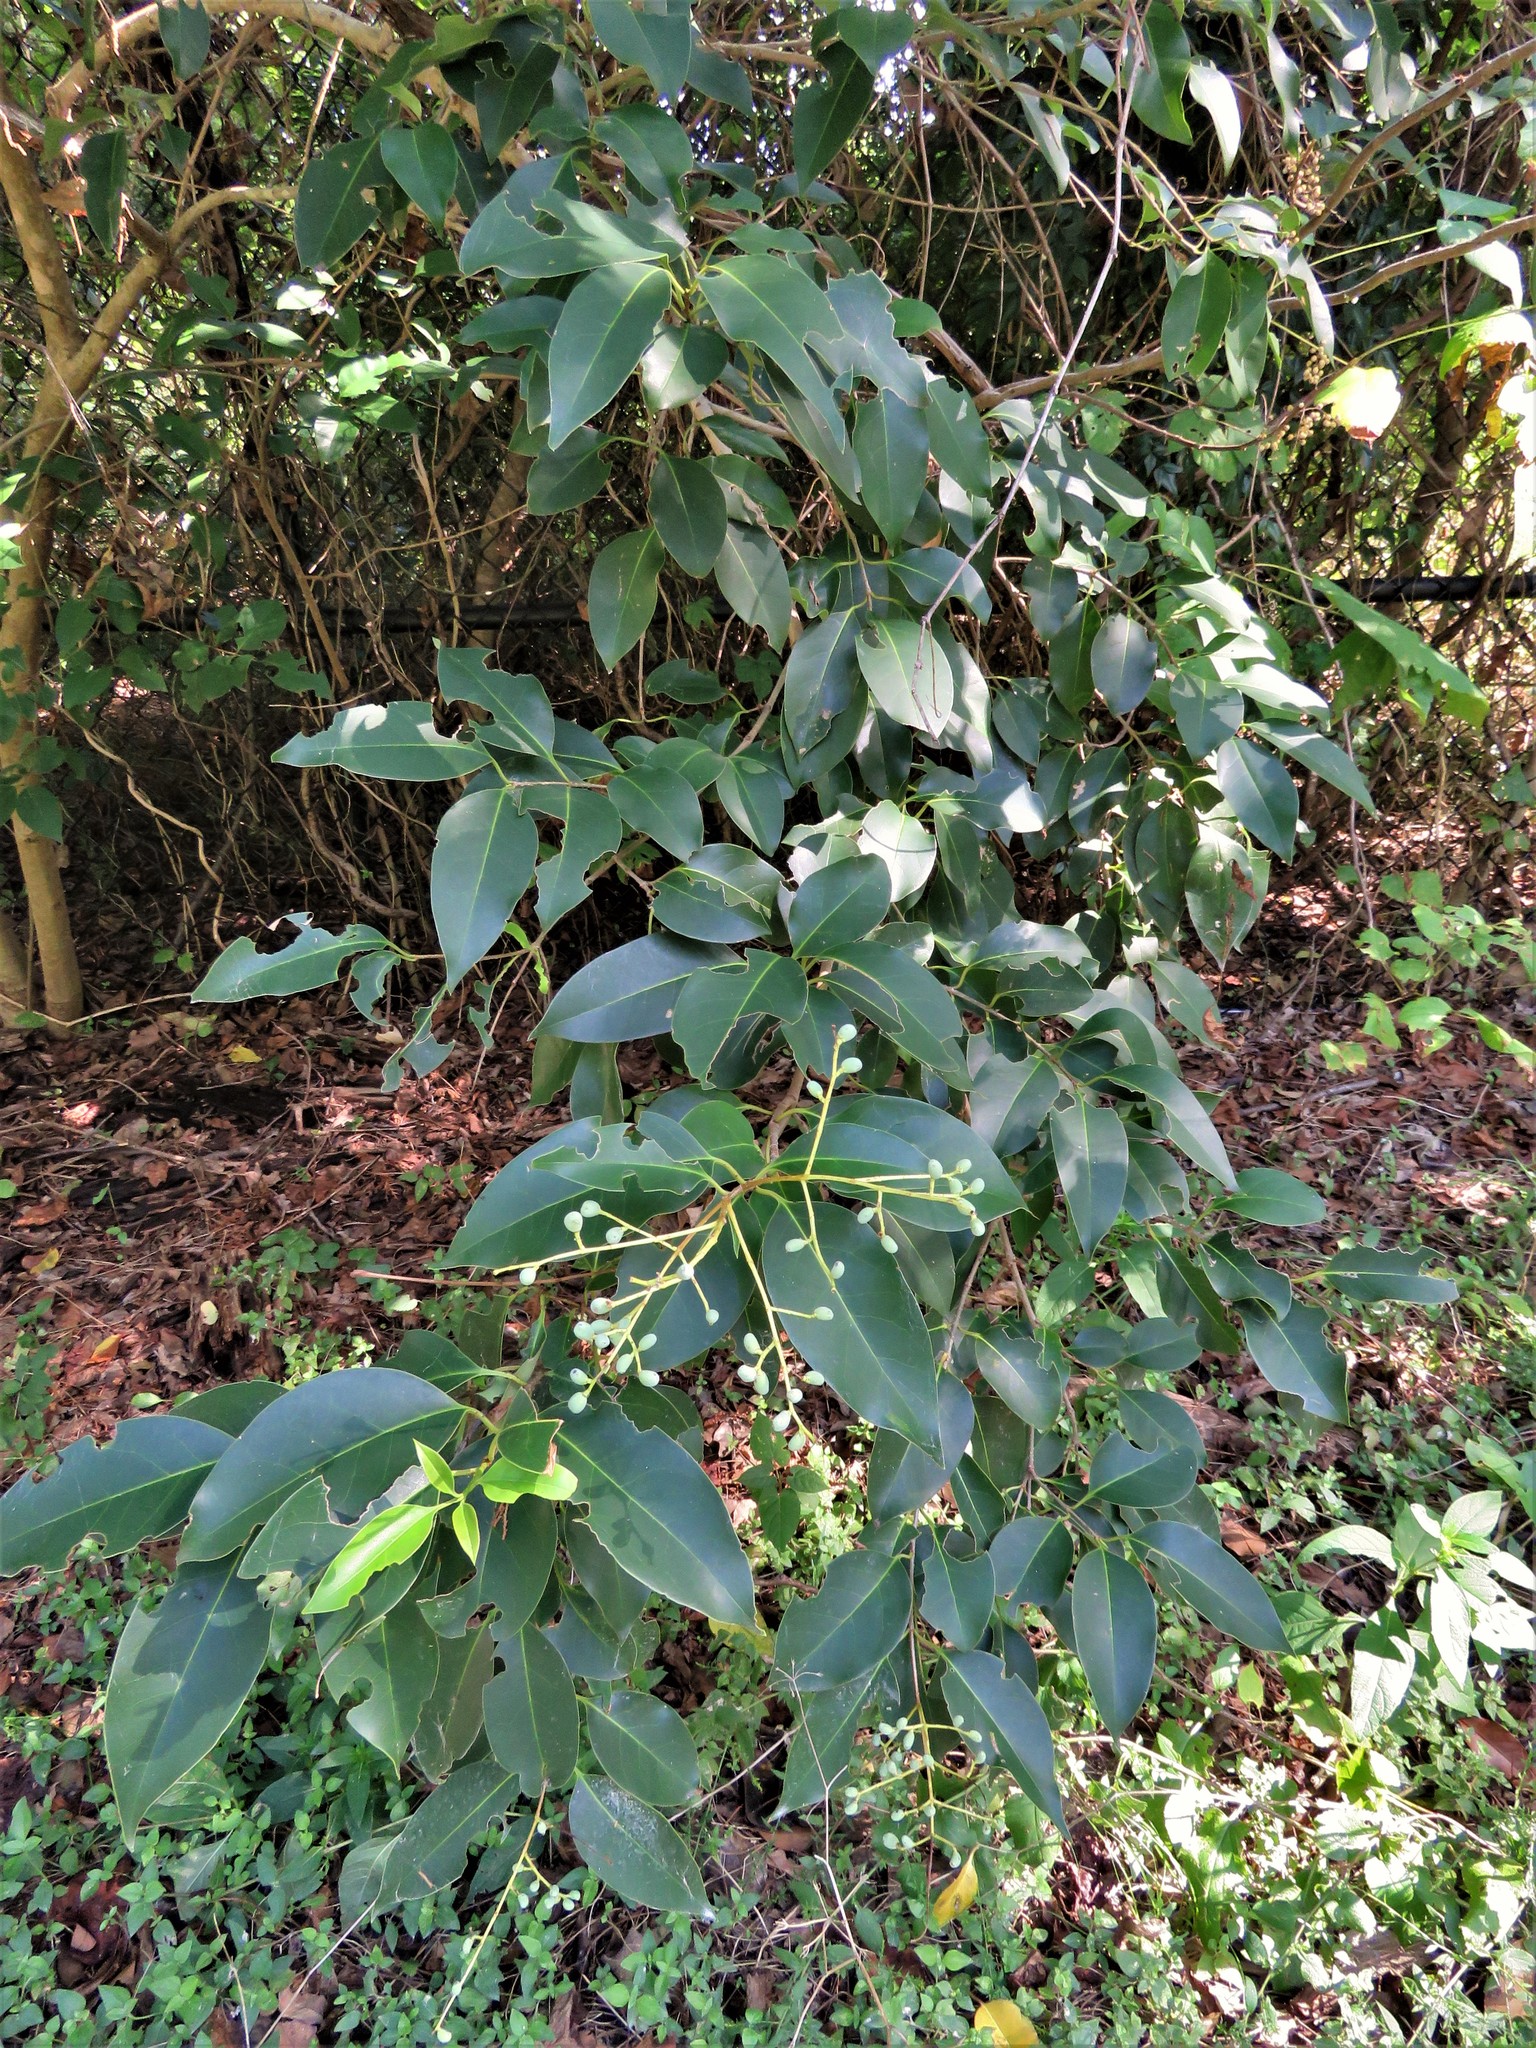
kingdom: Plantae
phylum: Tracheophyta
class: Magnoliopsida
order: Lamiales
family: Oleaceae
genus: Ligustrum
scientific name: Ligustrum lucidum
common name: Glossy privet
